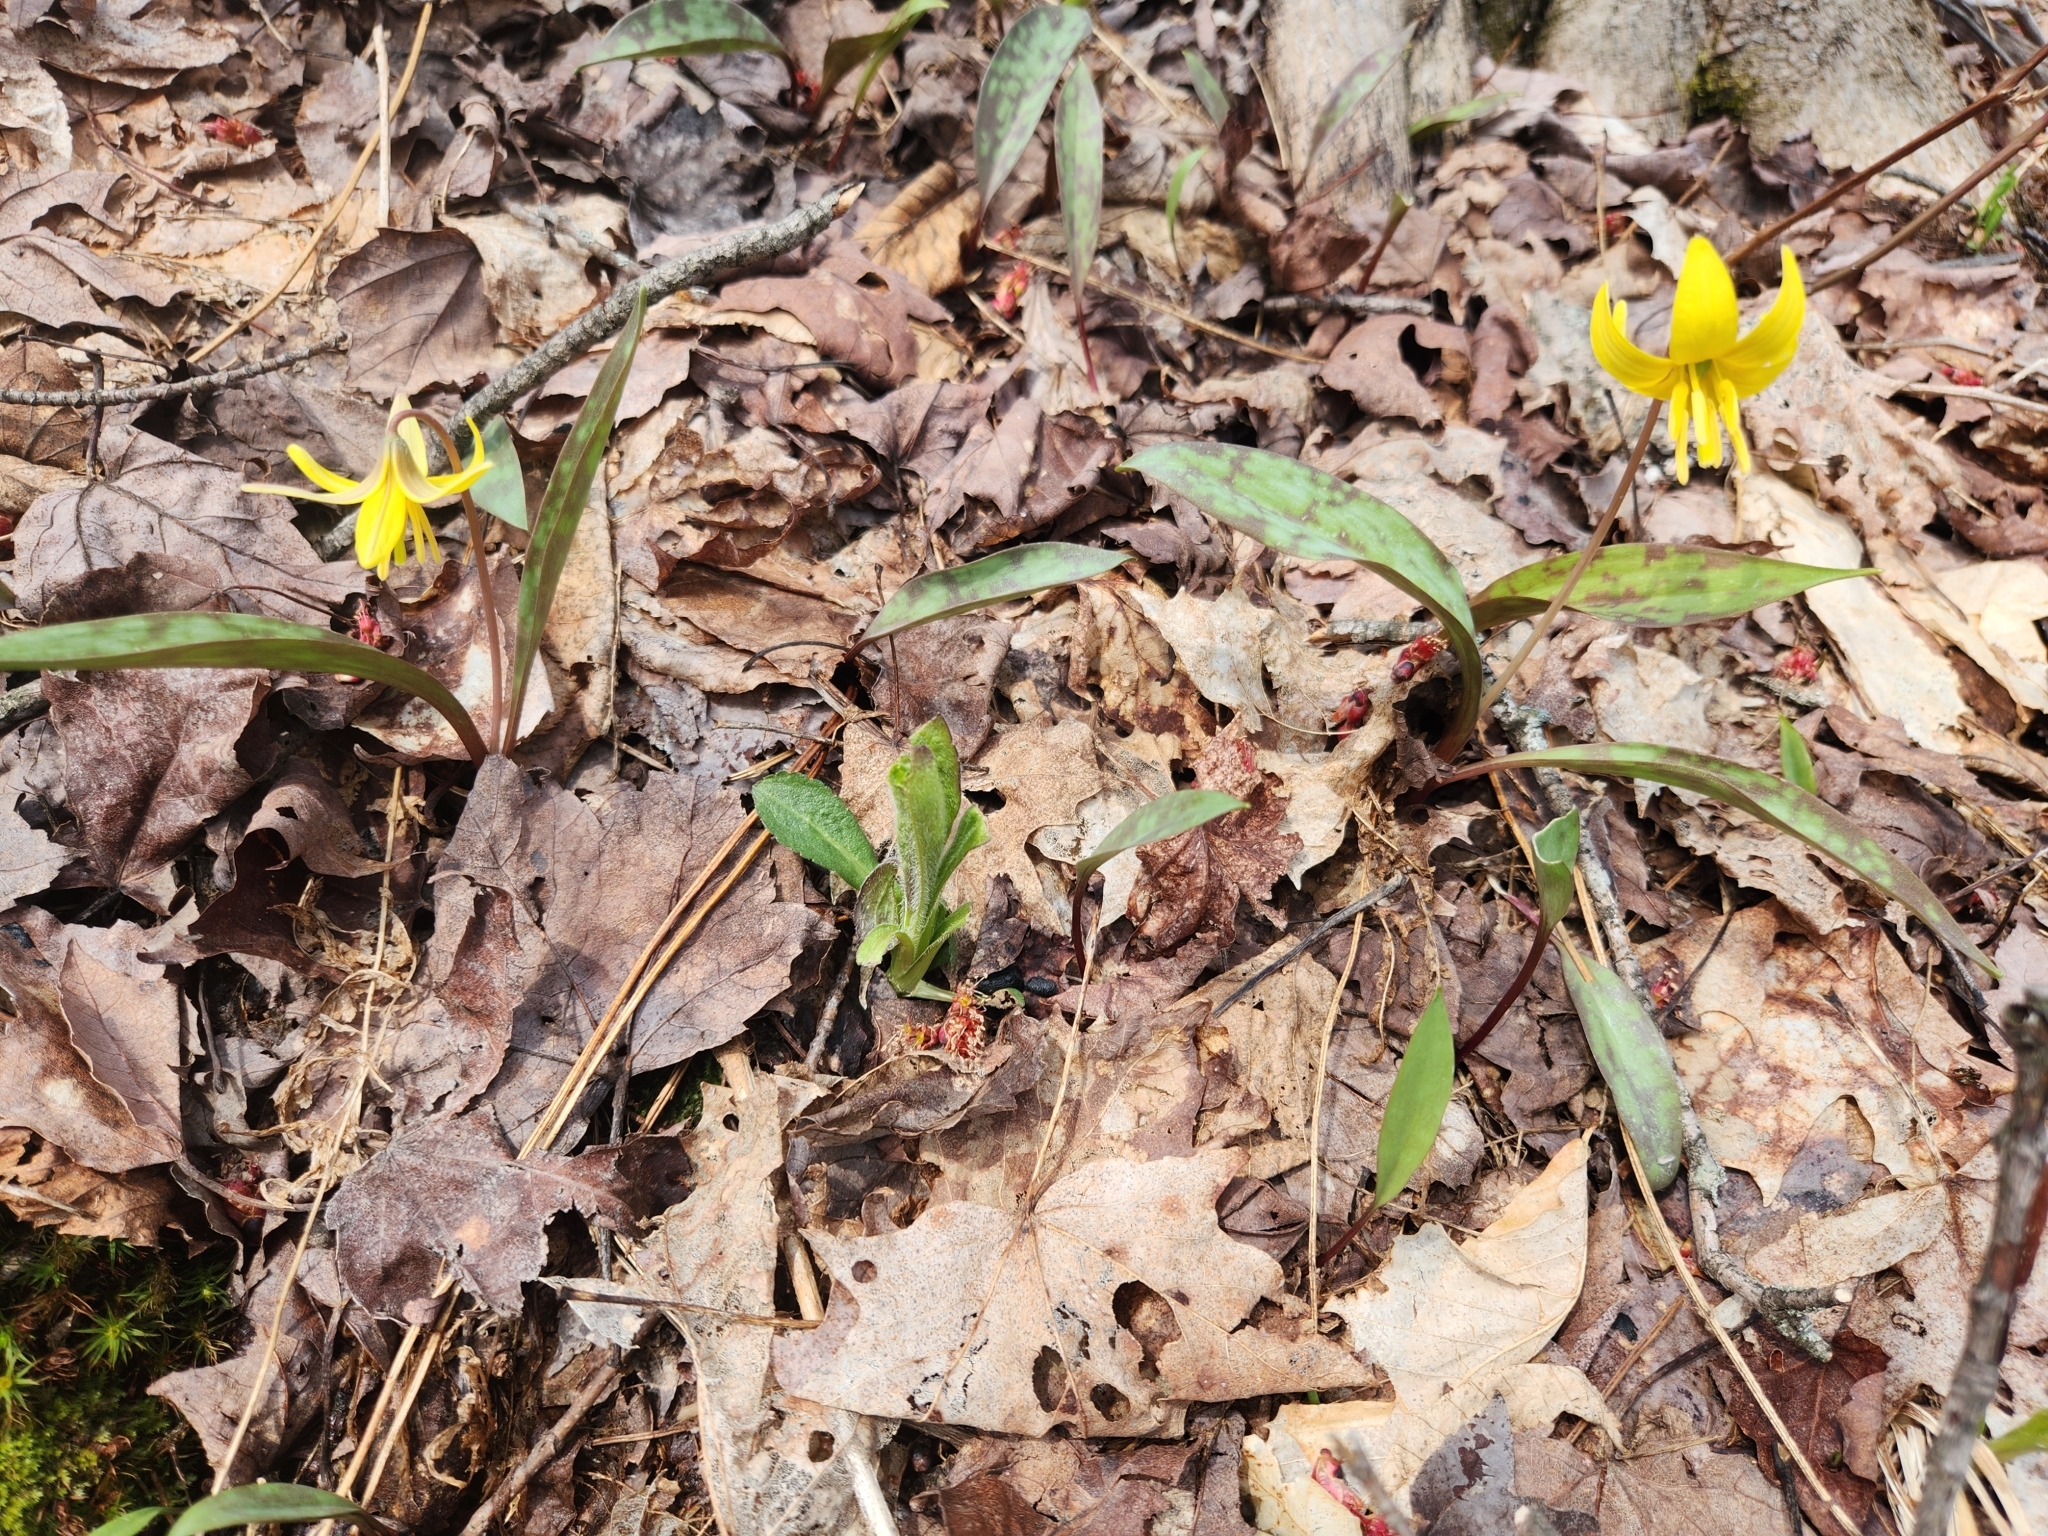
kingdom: Plantae
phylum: Tracheophyta
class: Liliopsida
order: Liliales
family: Liliaceae
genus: Erythronium
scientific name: Erythronium americanum
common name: Yellow adder's-tongue
